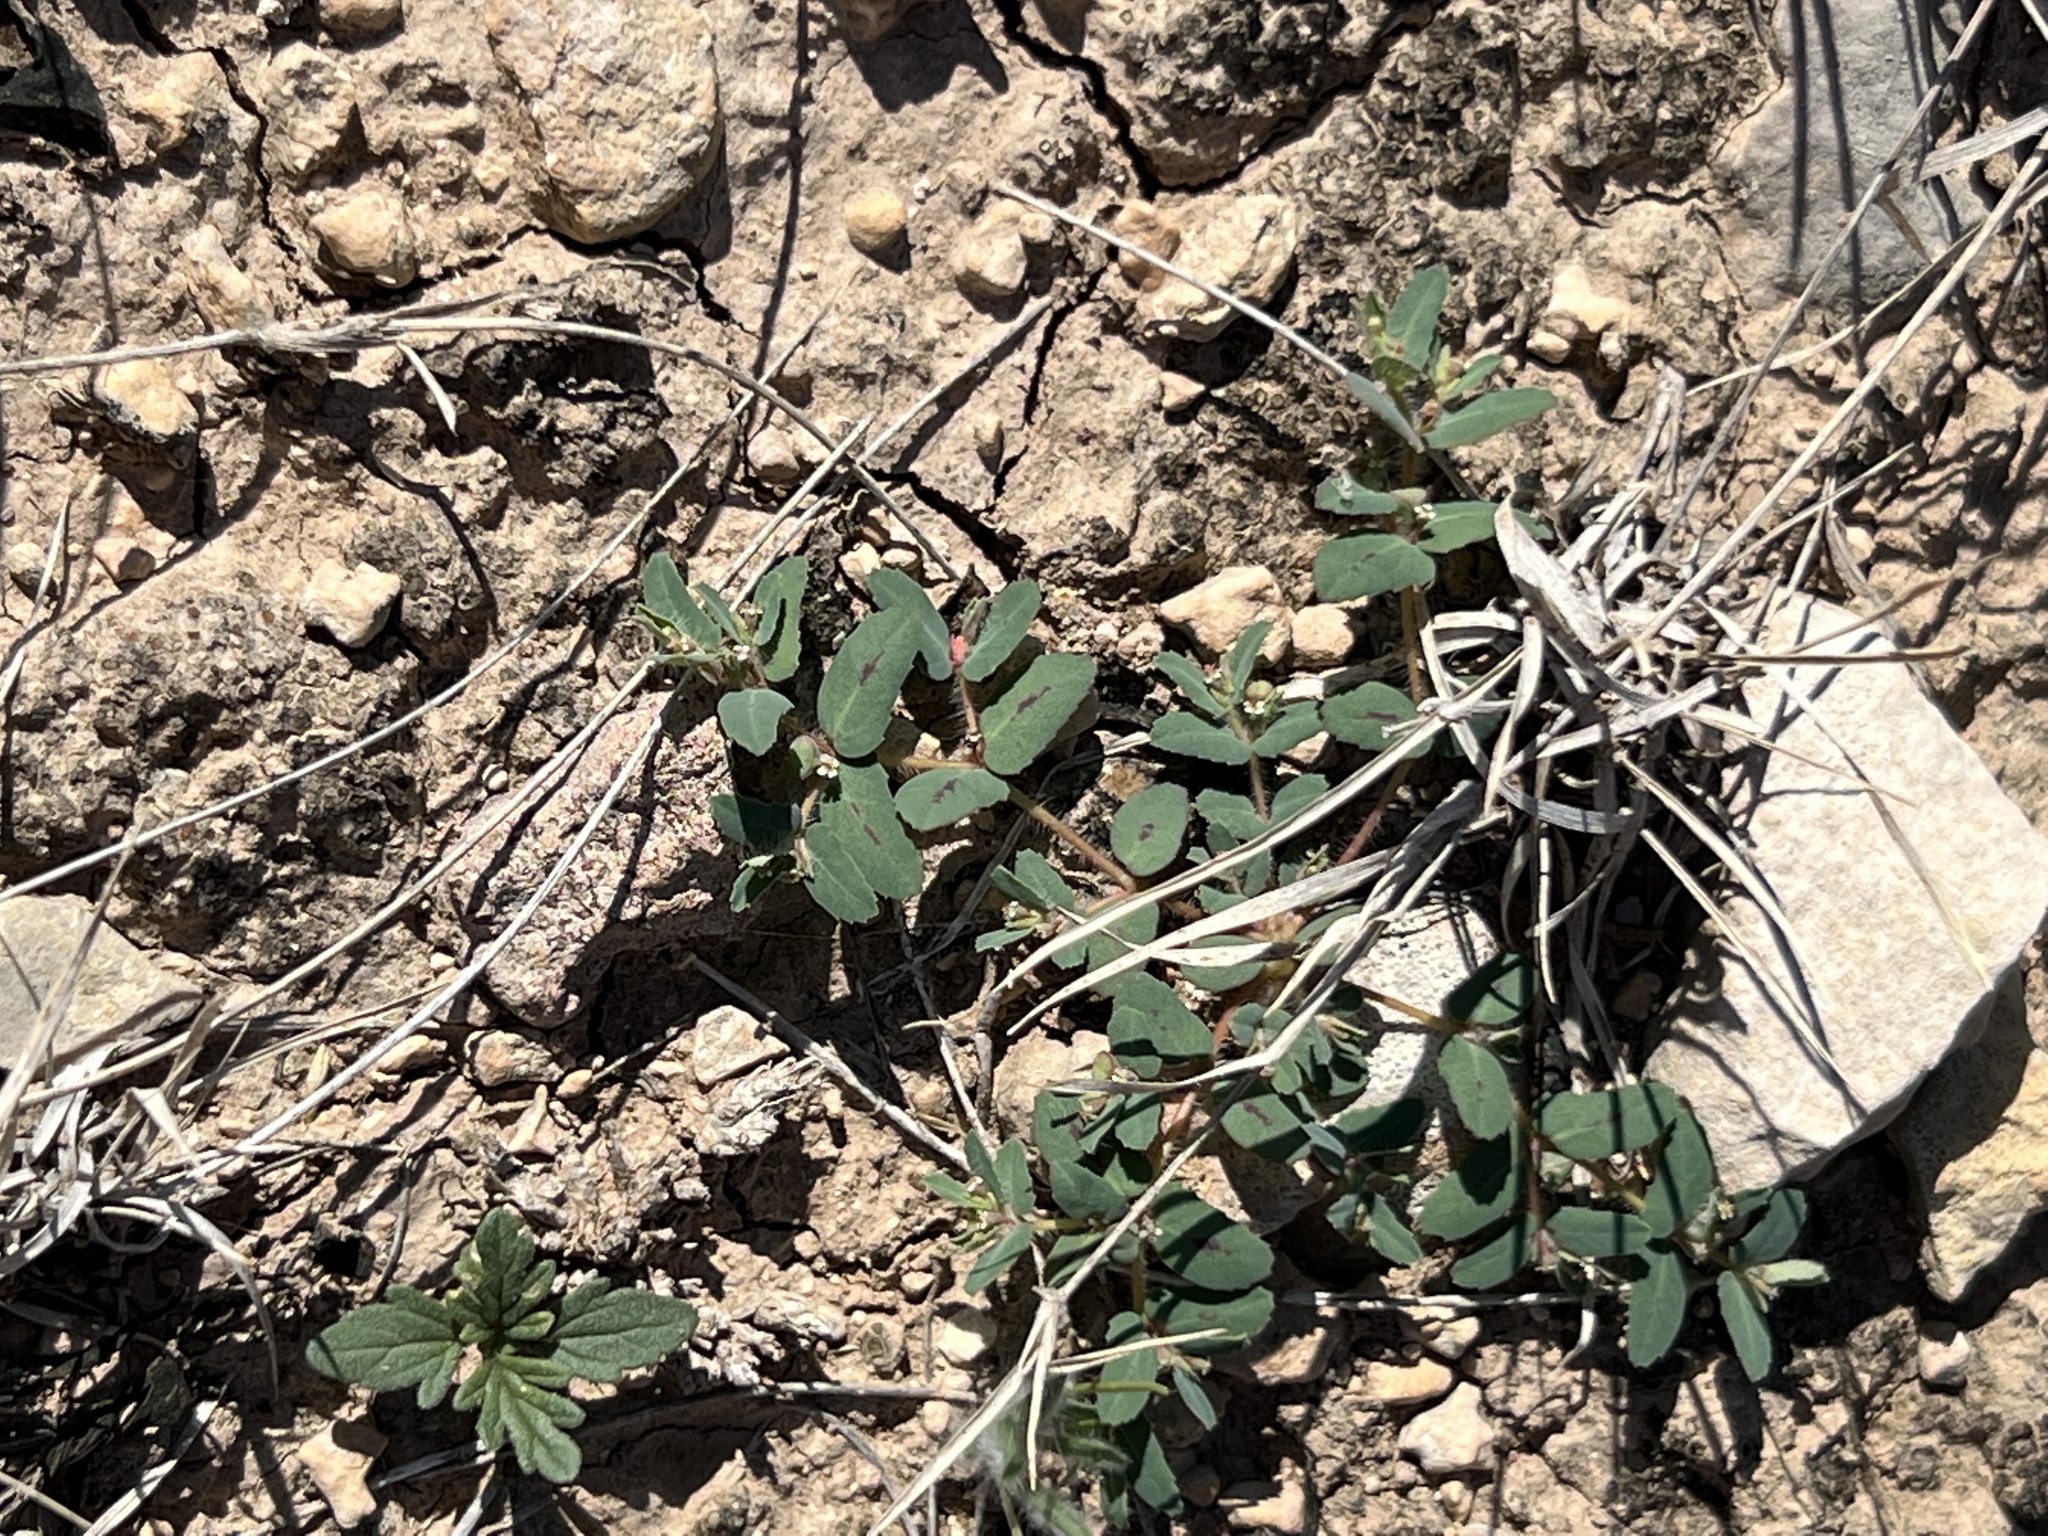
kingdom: Plantae
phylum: Tracheophyta
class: Magnoliopsida
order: Malpighiales
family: Euphorbiaceae
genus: Euphorbia
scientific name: Euphorbia serrula
